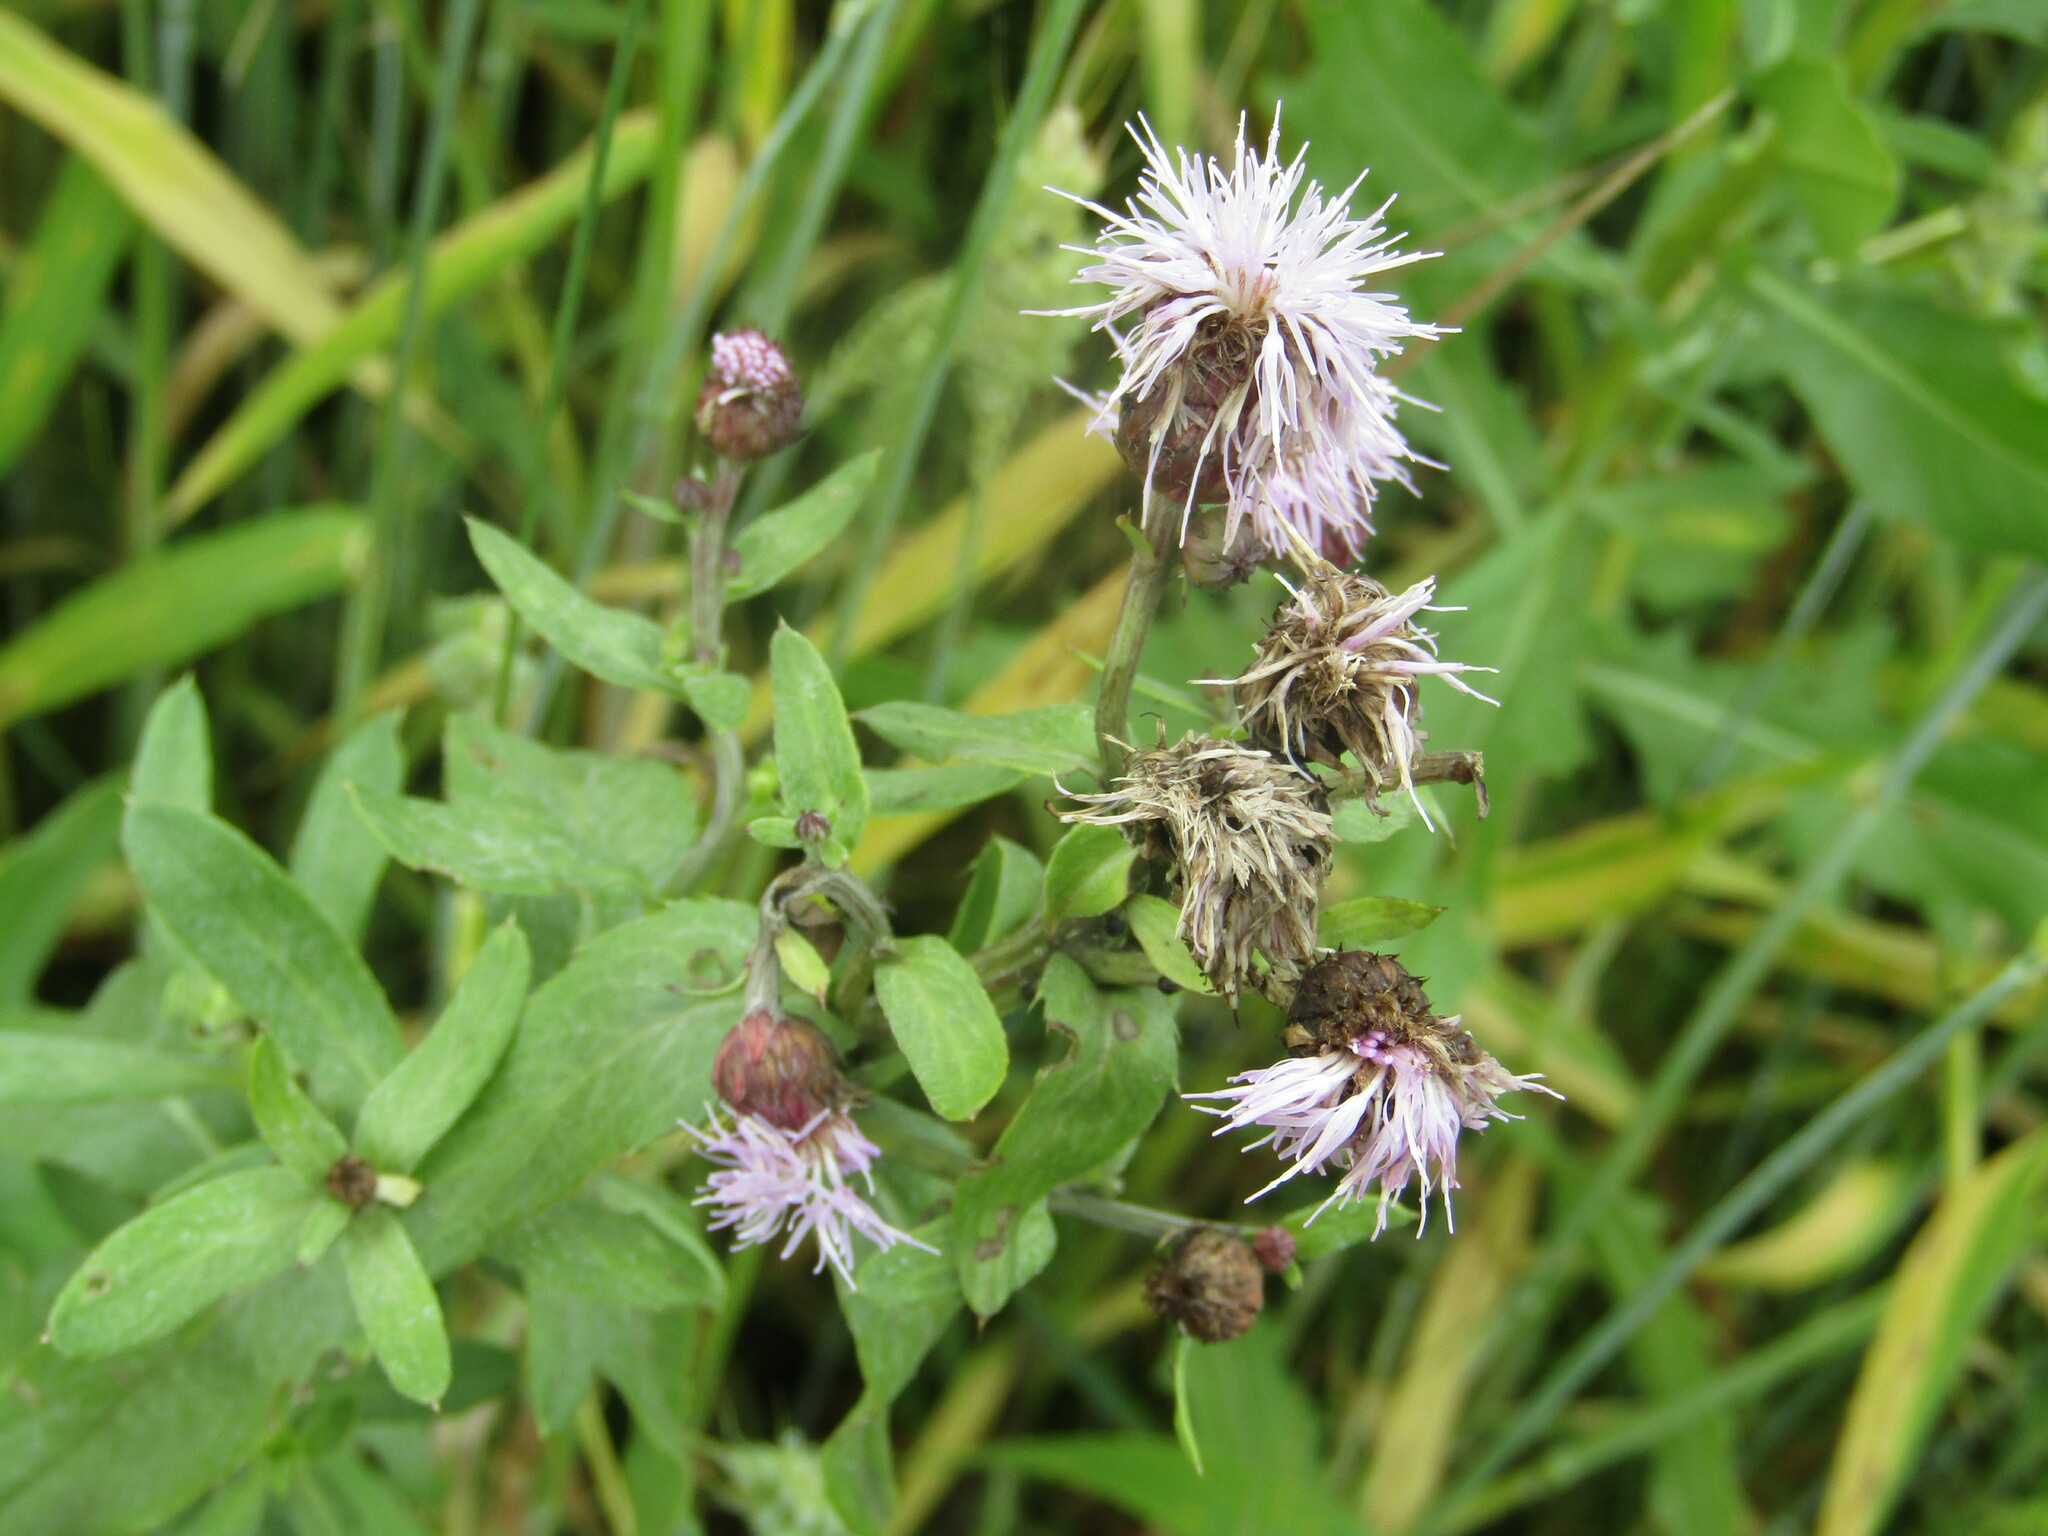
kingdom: Plantae
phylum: Tracheophyta
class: Magnoliopsida
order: Asterales
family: Asteraceae
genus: Cirsium
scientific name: Cirsium arvense
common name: Creeping thistle
